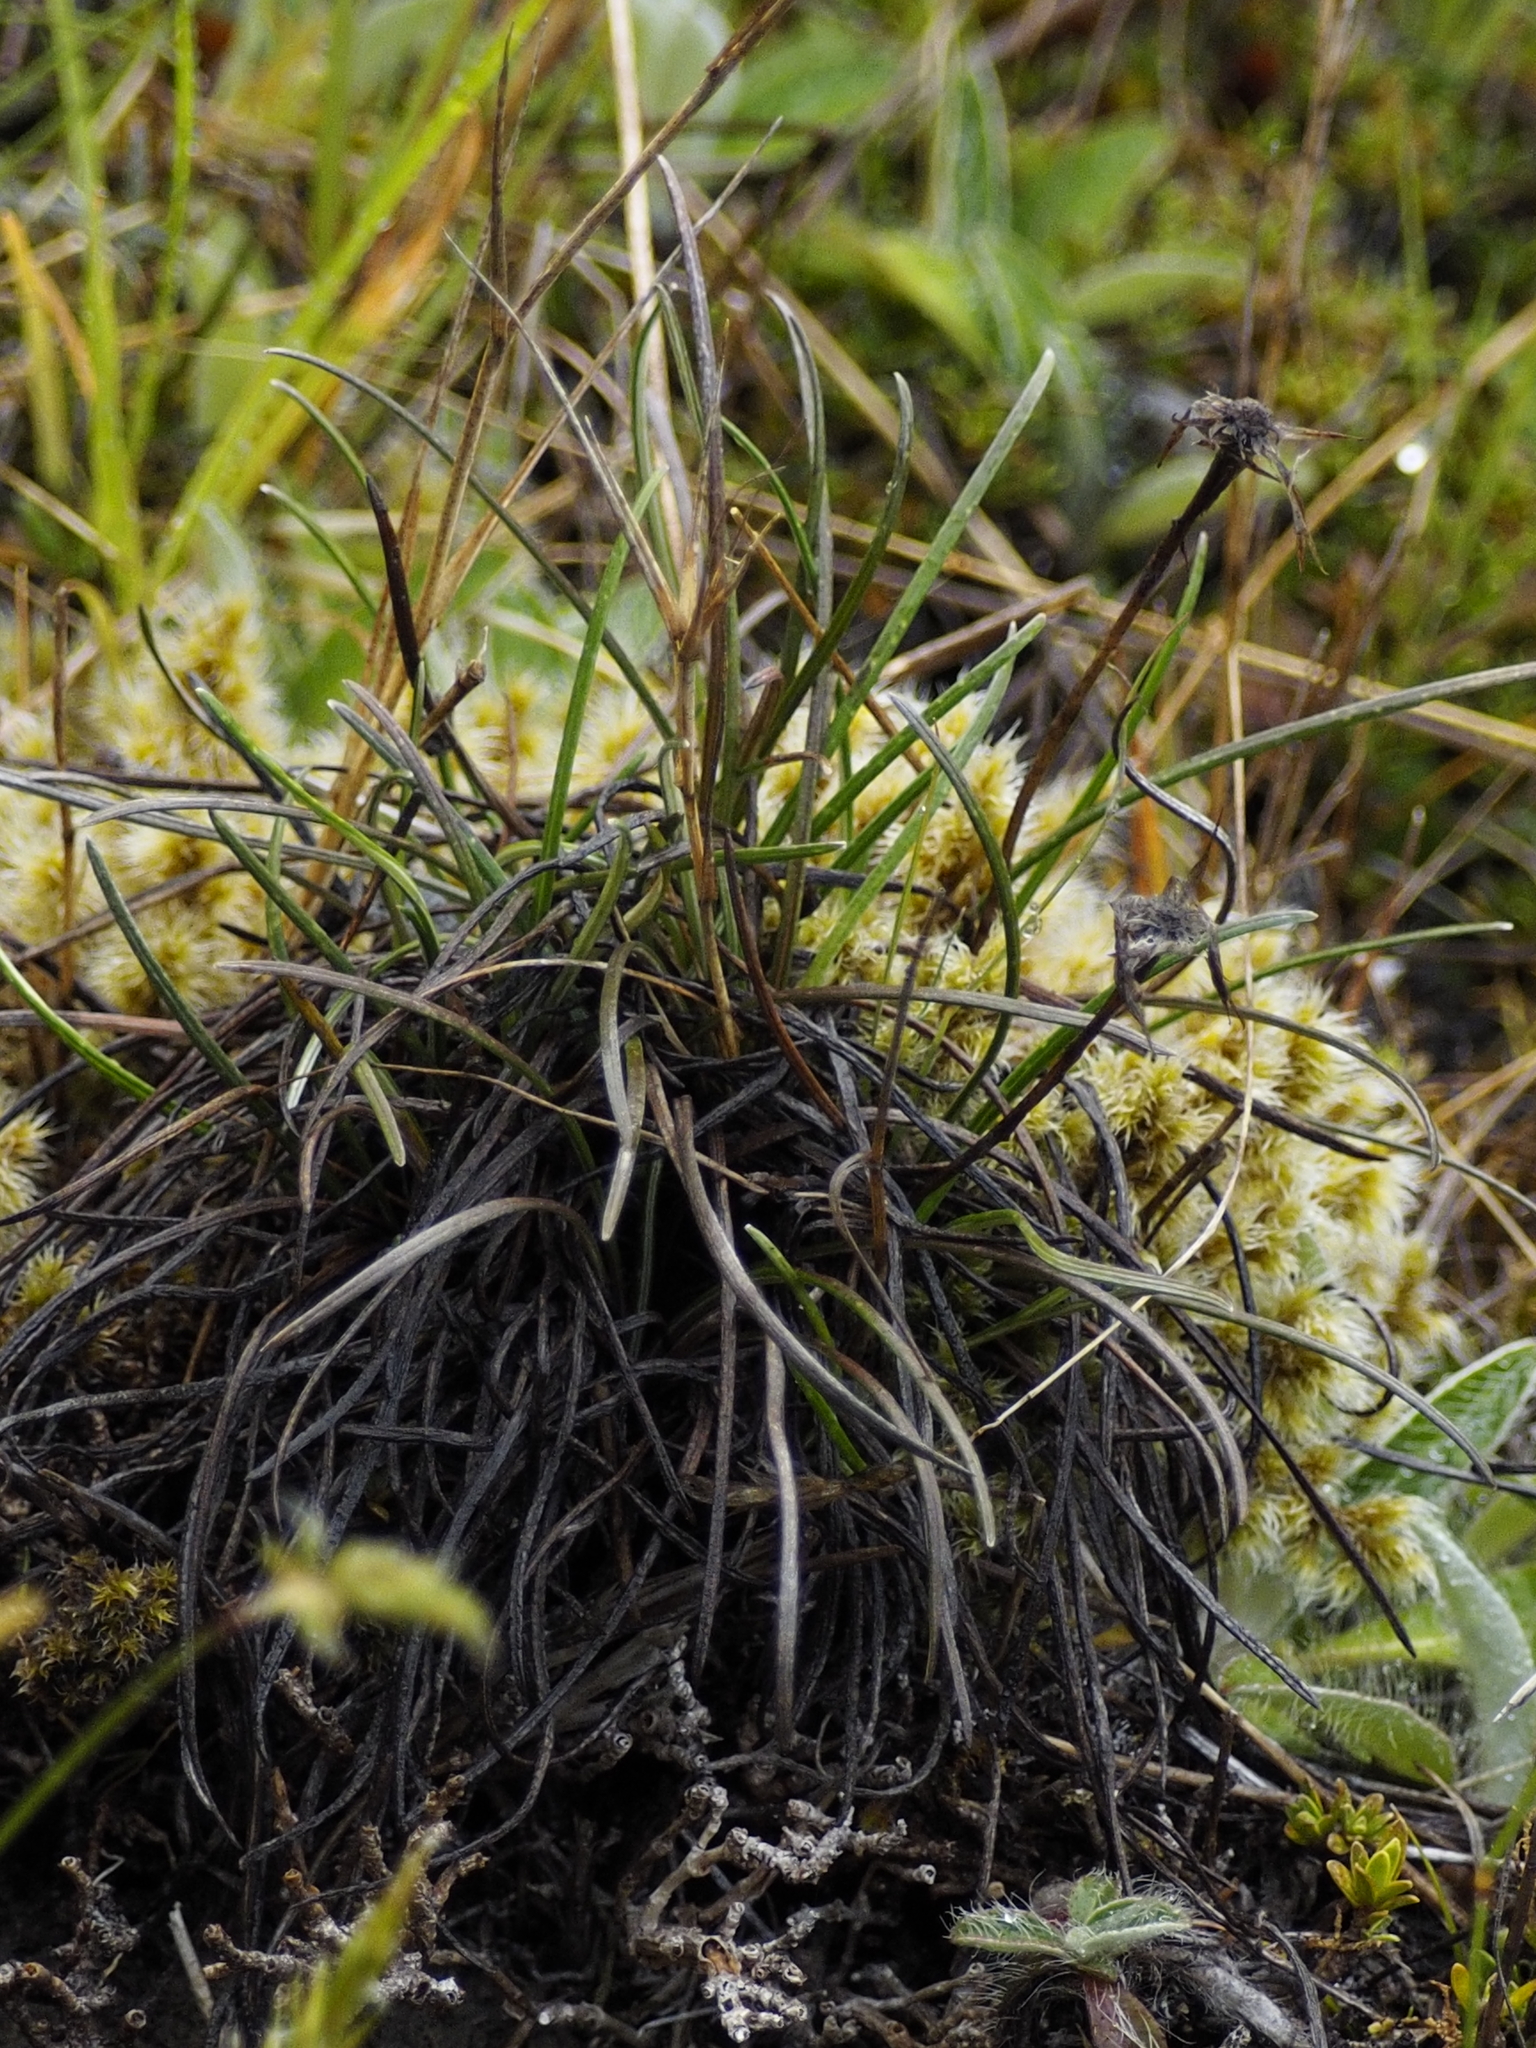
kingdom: Plantae
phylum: Tracheophyta
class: Magnoliopsida
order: Asterales
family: Asteraceae
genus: Celmisia
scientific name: Celmisia gracilenta
